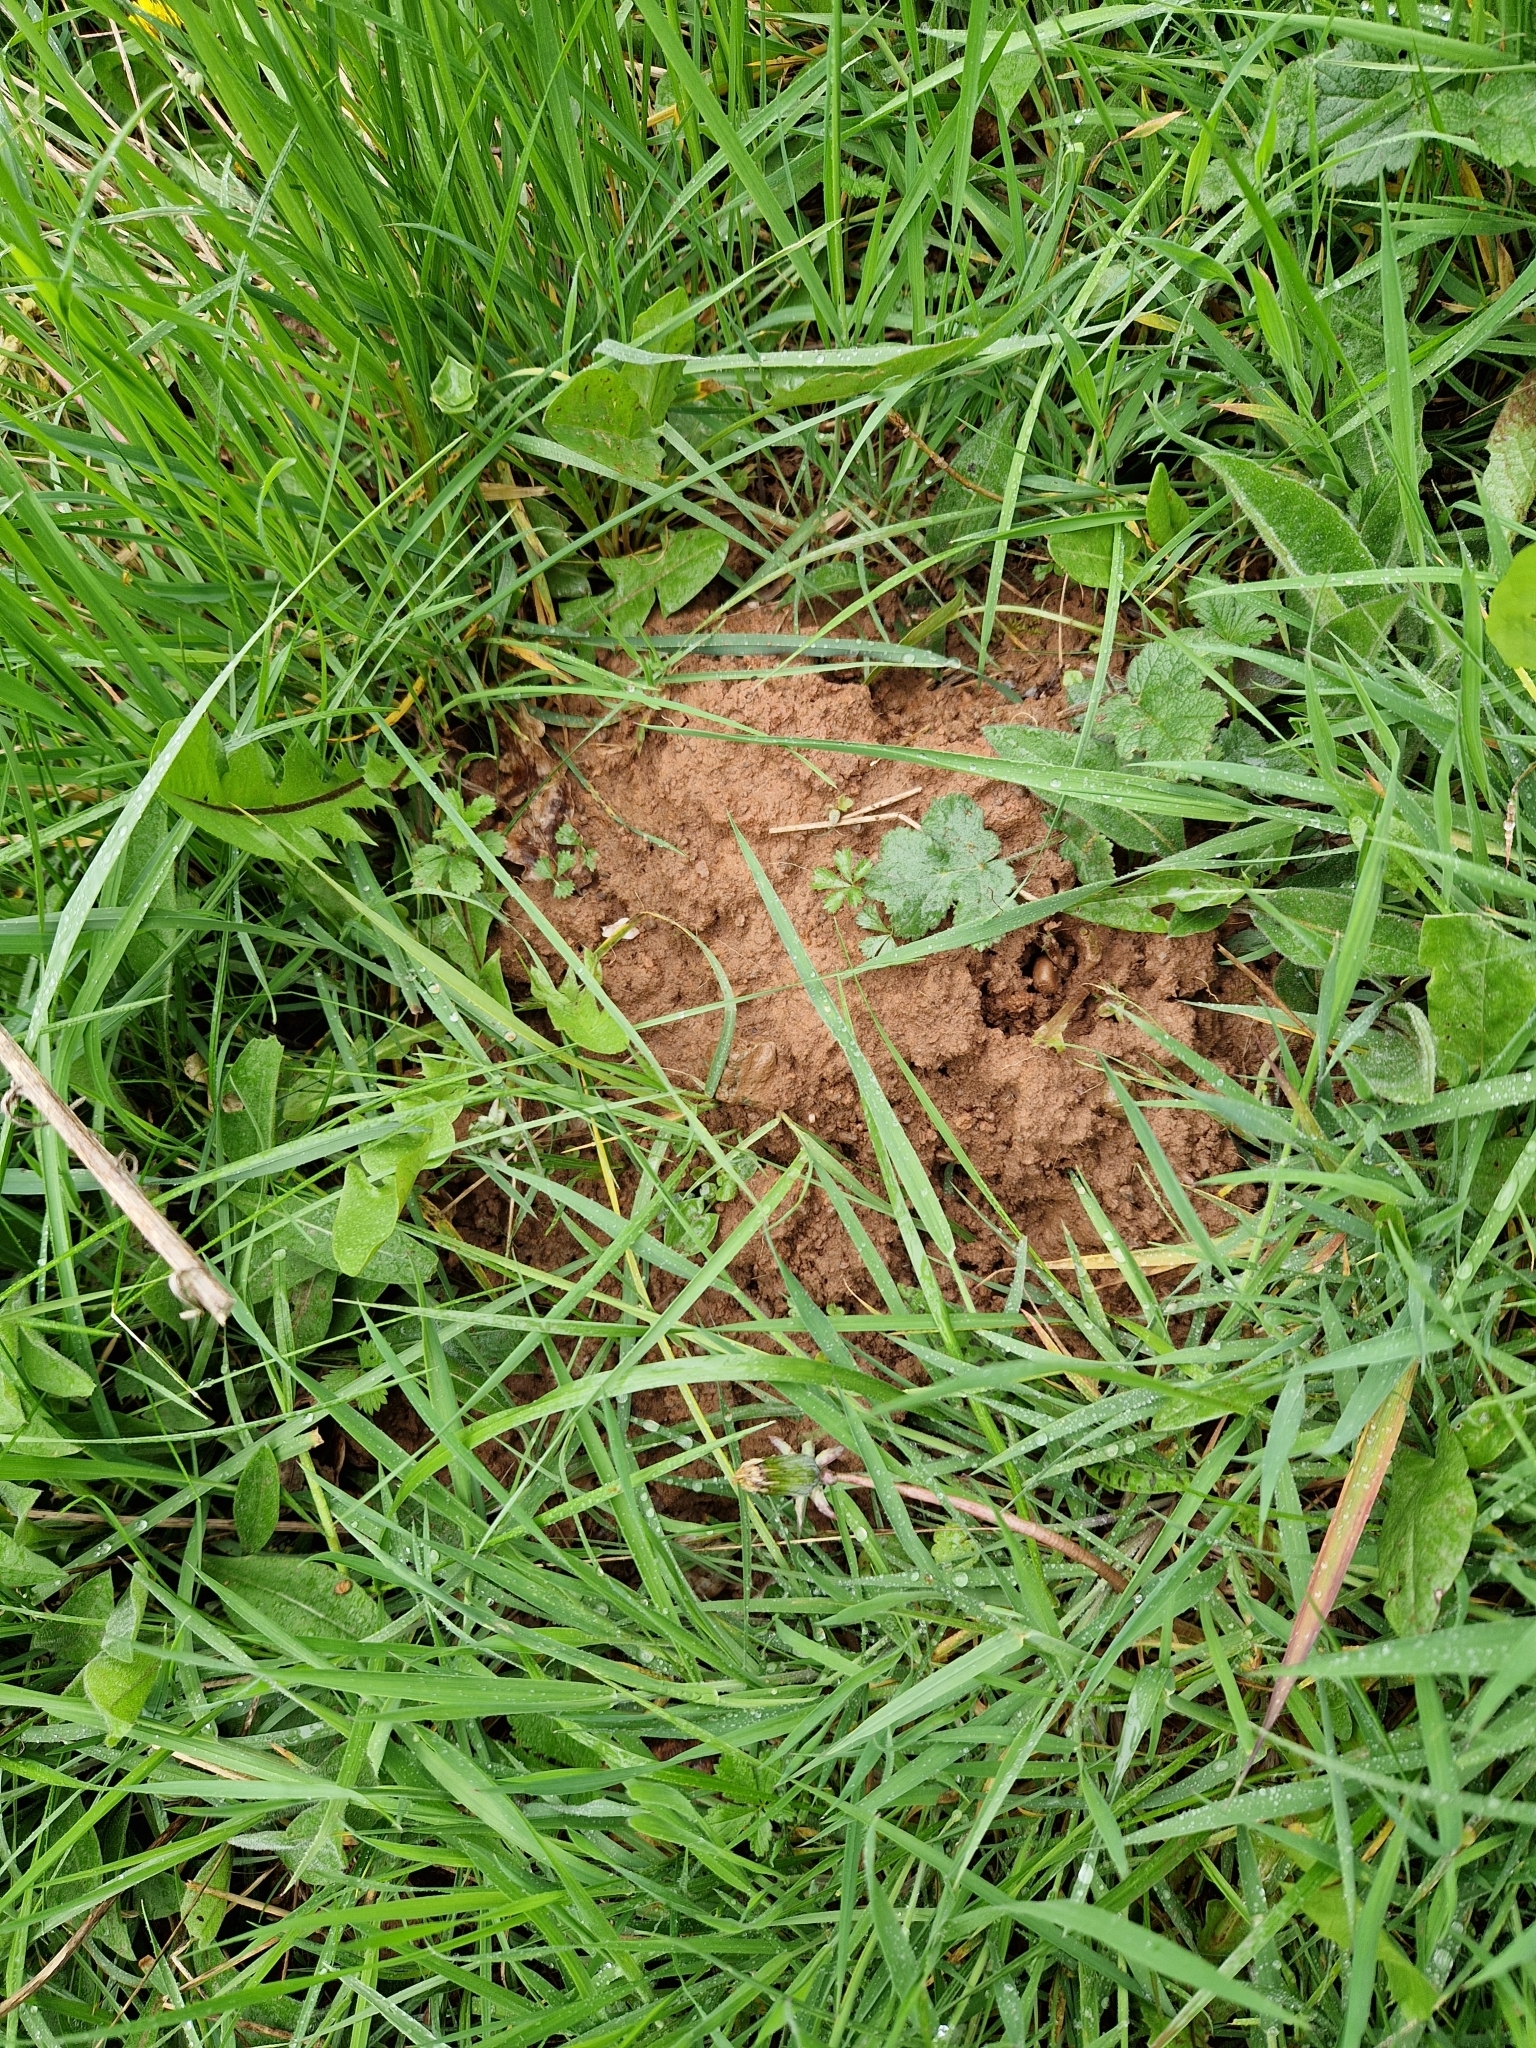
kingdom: Animalia
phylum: Chordata
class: Mammalia
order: Soricomorpha
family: Talpidae
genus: Talpa
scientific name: Talpa europaea
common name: European mole
